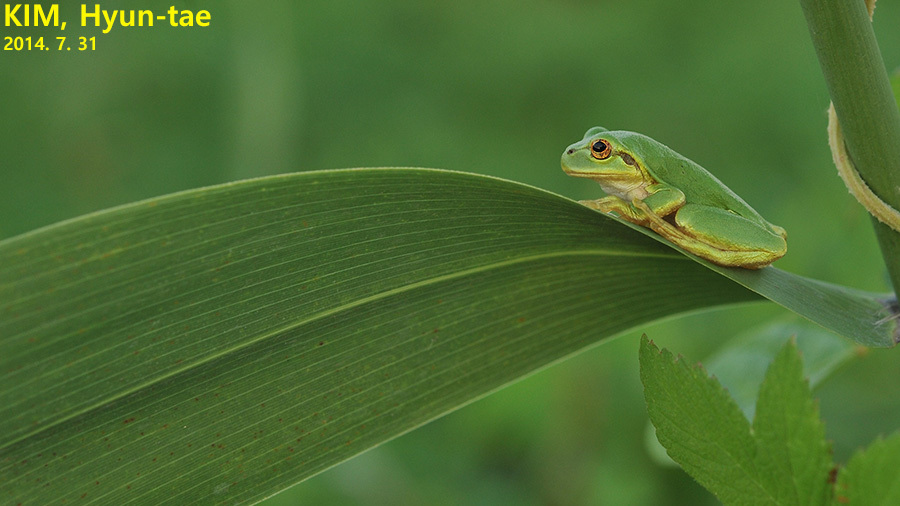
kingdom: Animalia
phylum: Chordata
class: Amphibia
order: Anura
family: Hylidae
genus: Dryophytes
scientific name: Dryophytes japonicus
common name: Japanese treefrog
